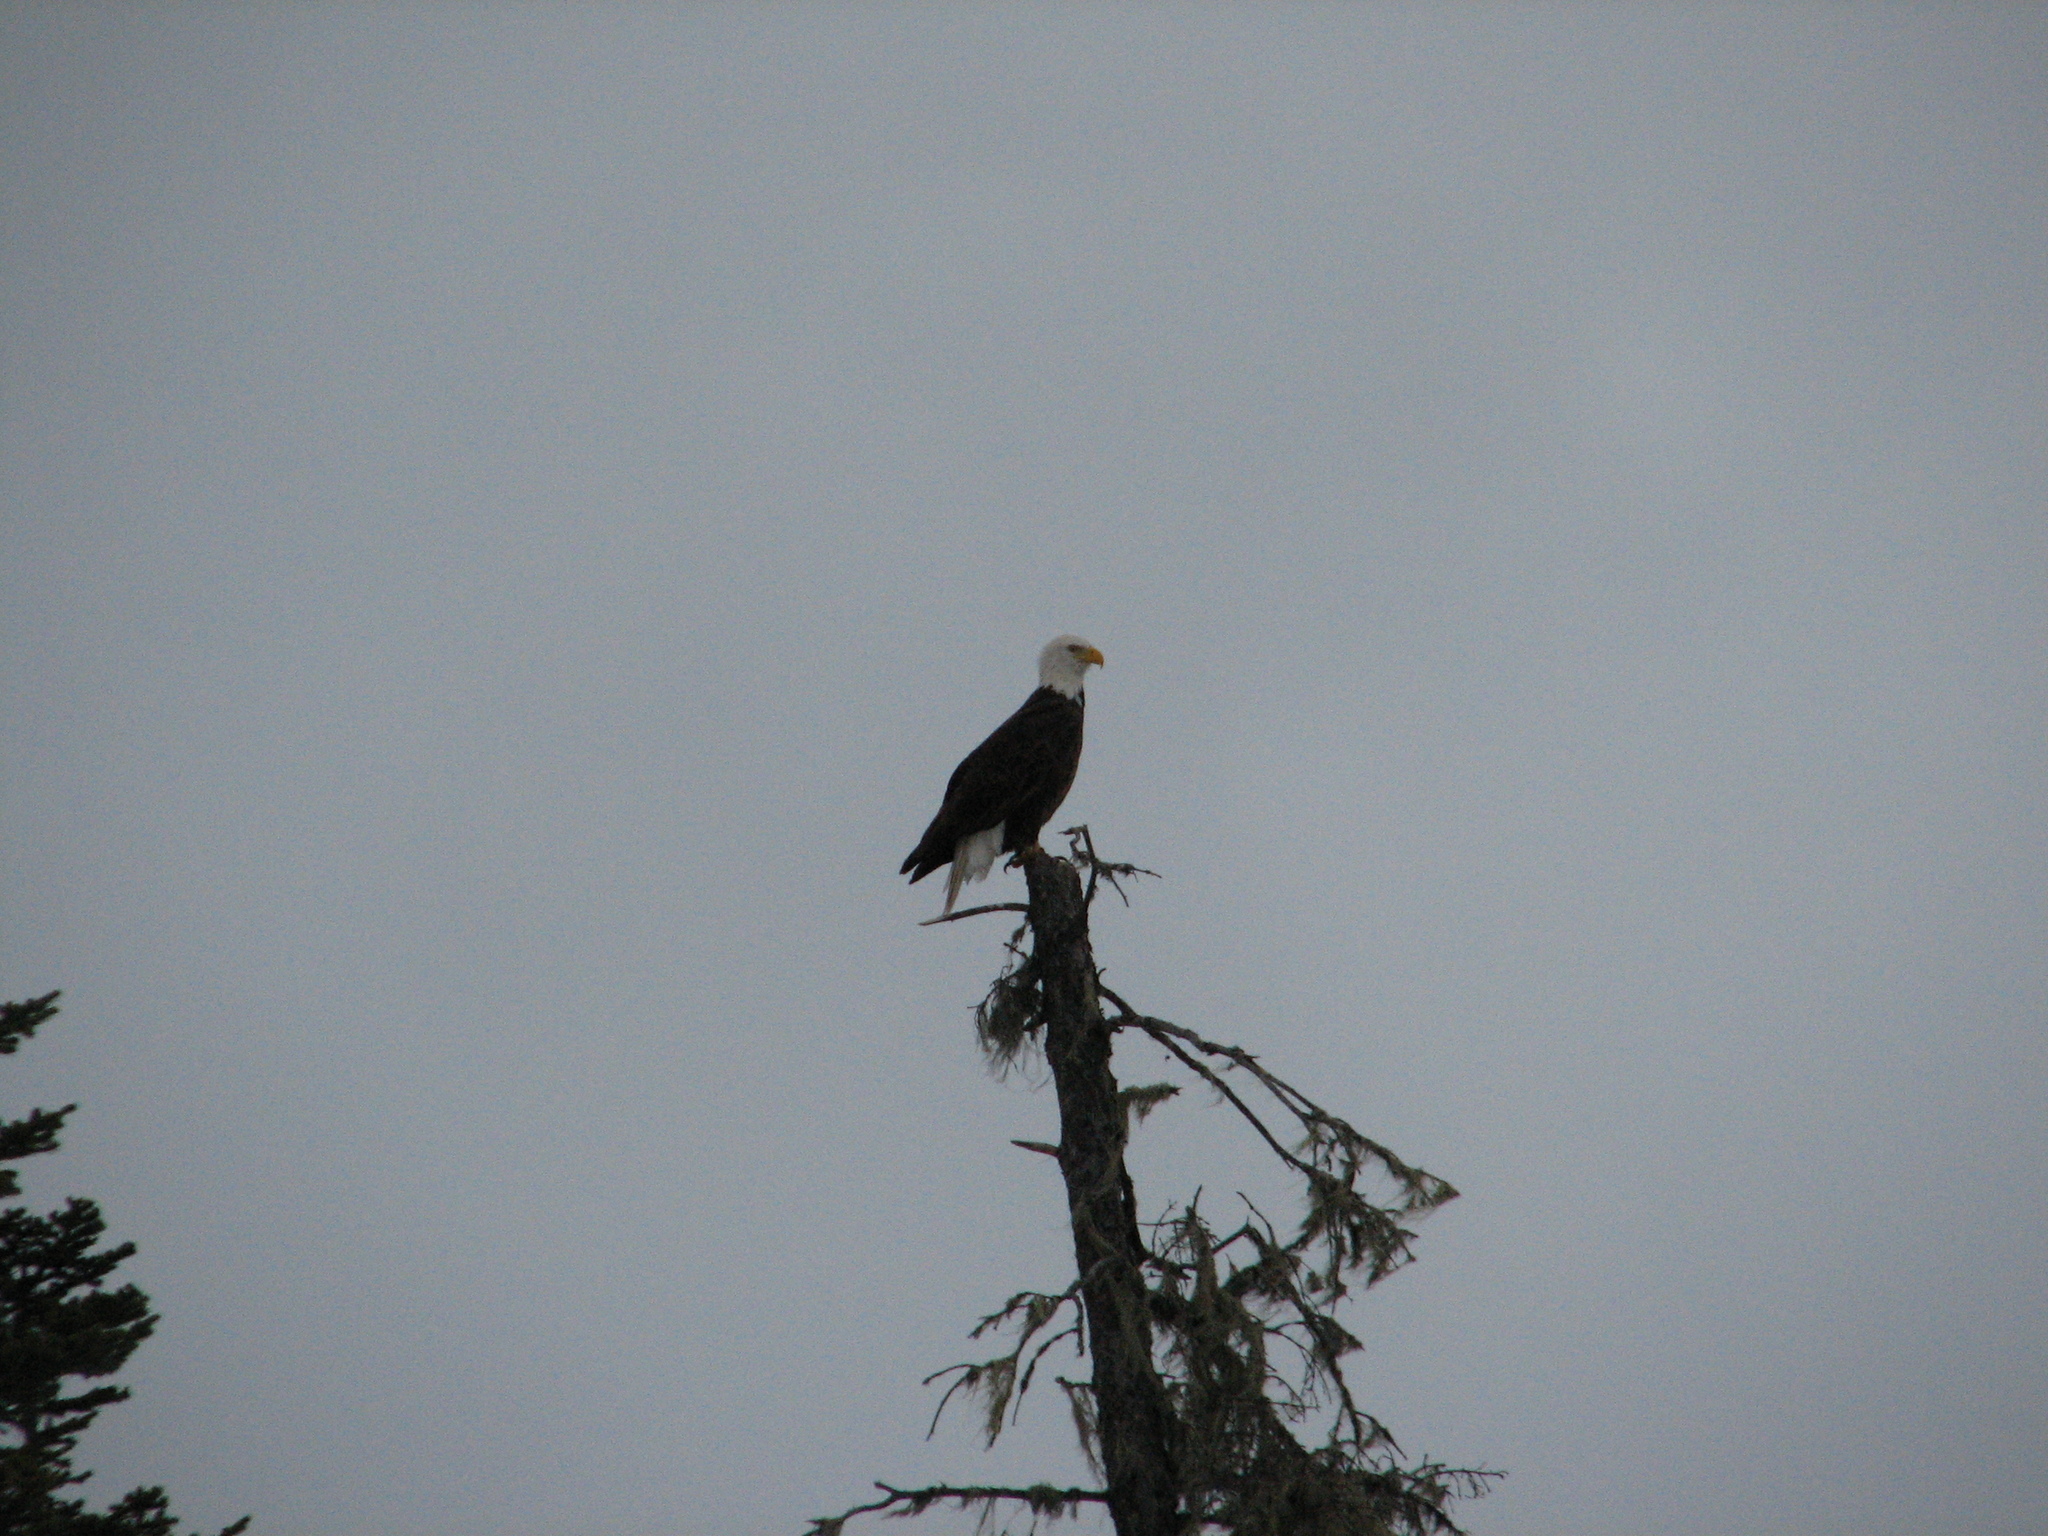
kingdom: Animalia
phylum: Chordata
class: Aves
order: Accipitriformes
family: Accipitridae
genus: Haliaeetus
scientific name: Haliaeetus leucocephalus
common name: Bald eagle
